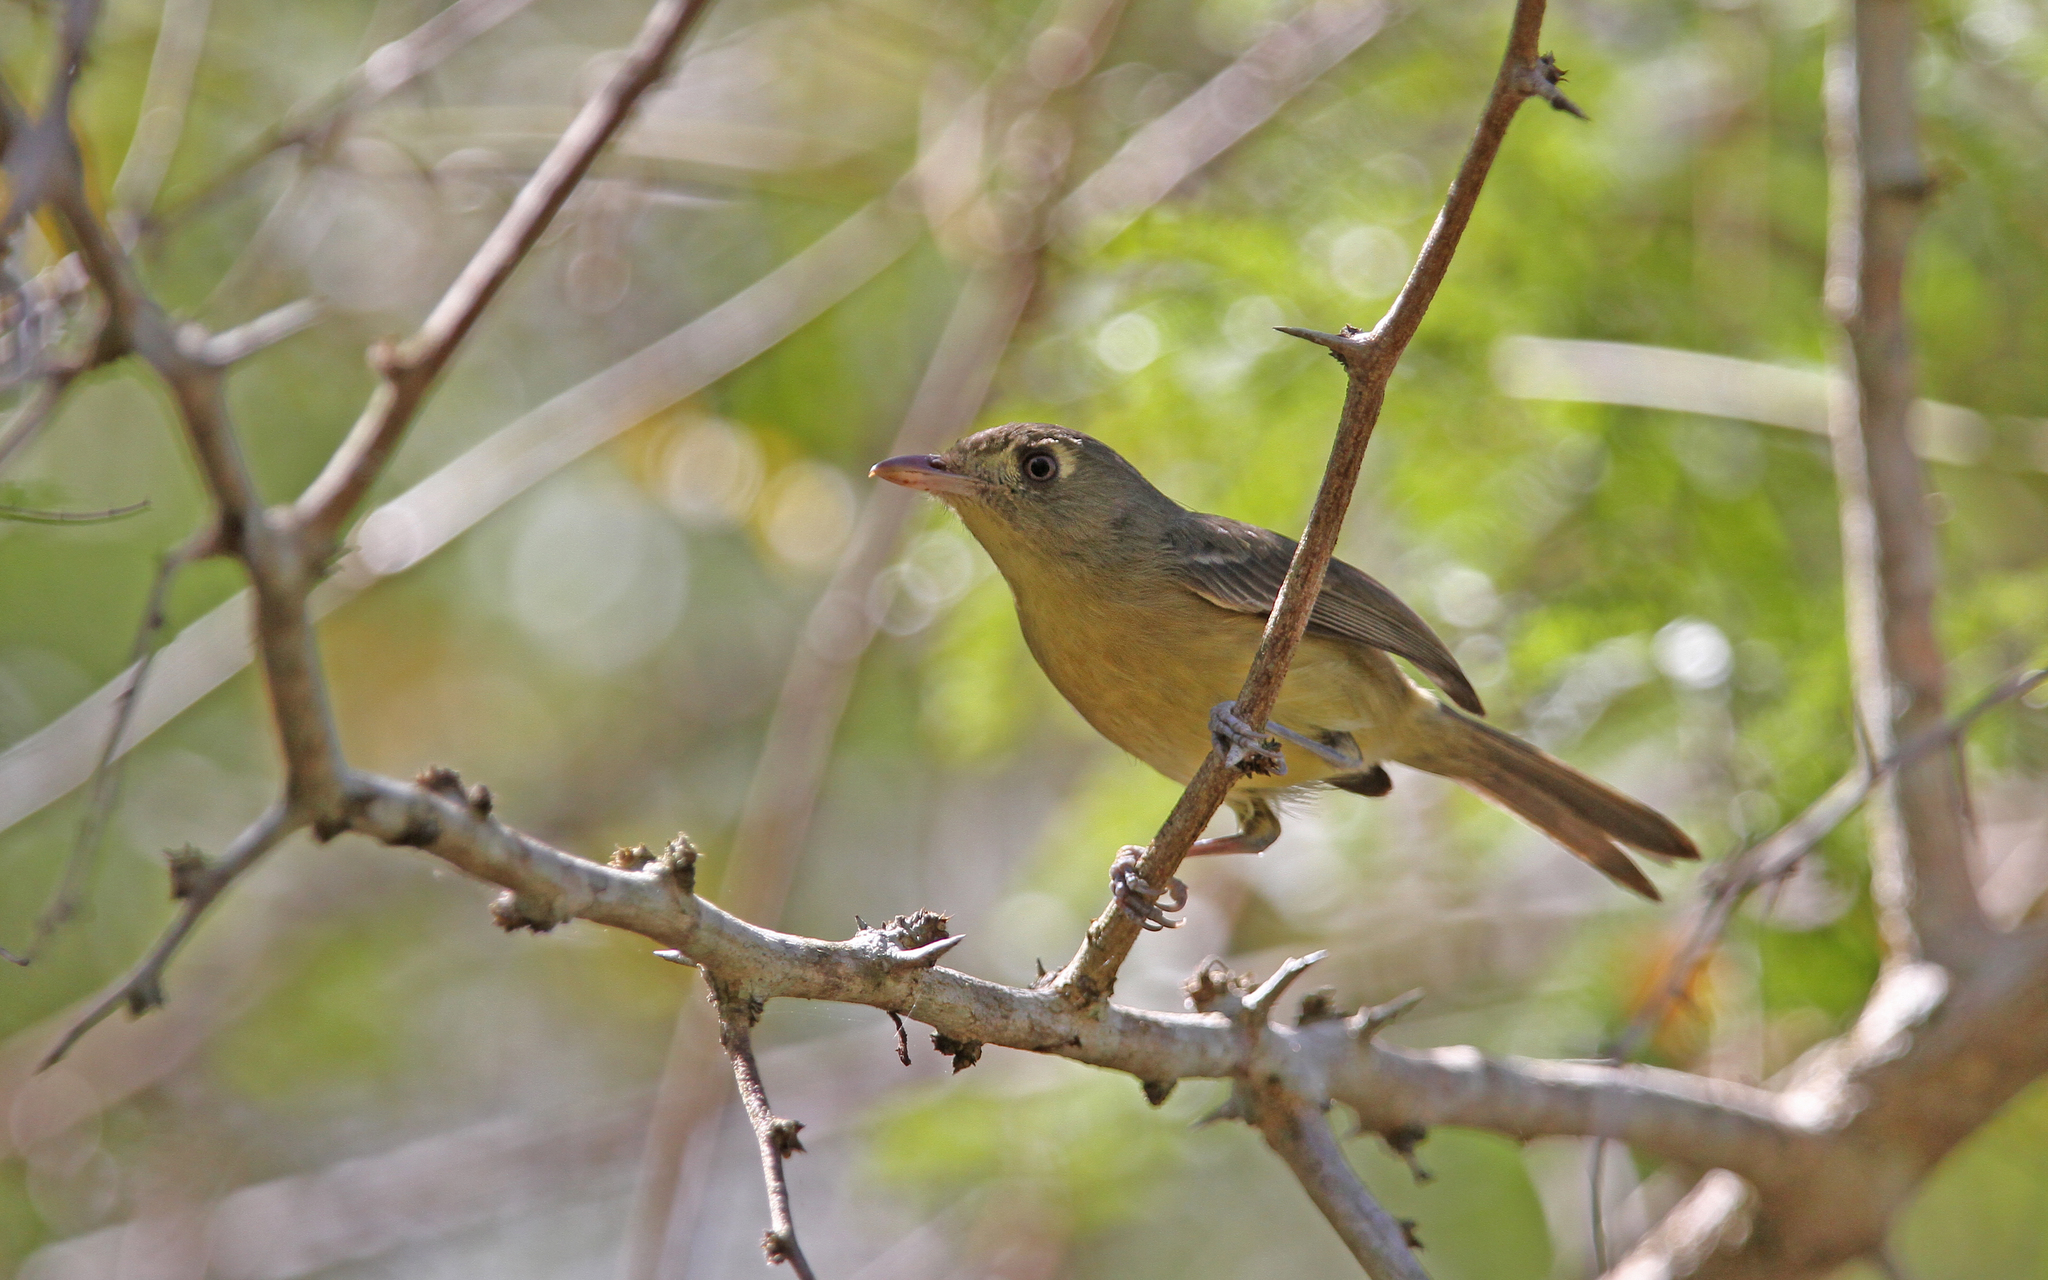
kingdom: Animalia
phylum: Chordata
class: Aves
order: Passeriformes
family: Vireonidae
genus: Vireo
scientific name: Vireo gundlachii
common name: Cuban vireo
